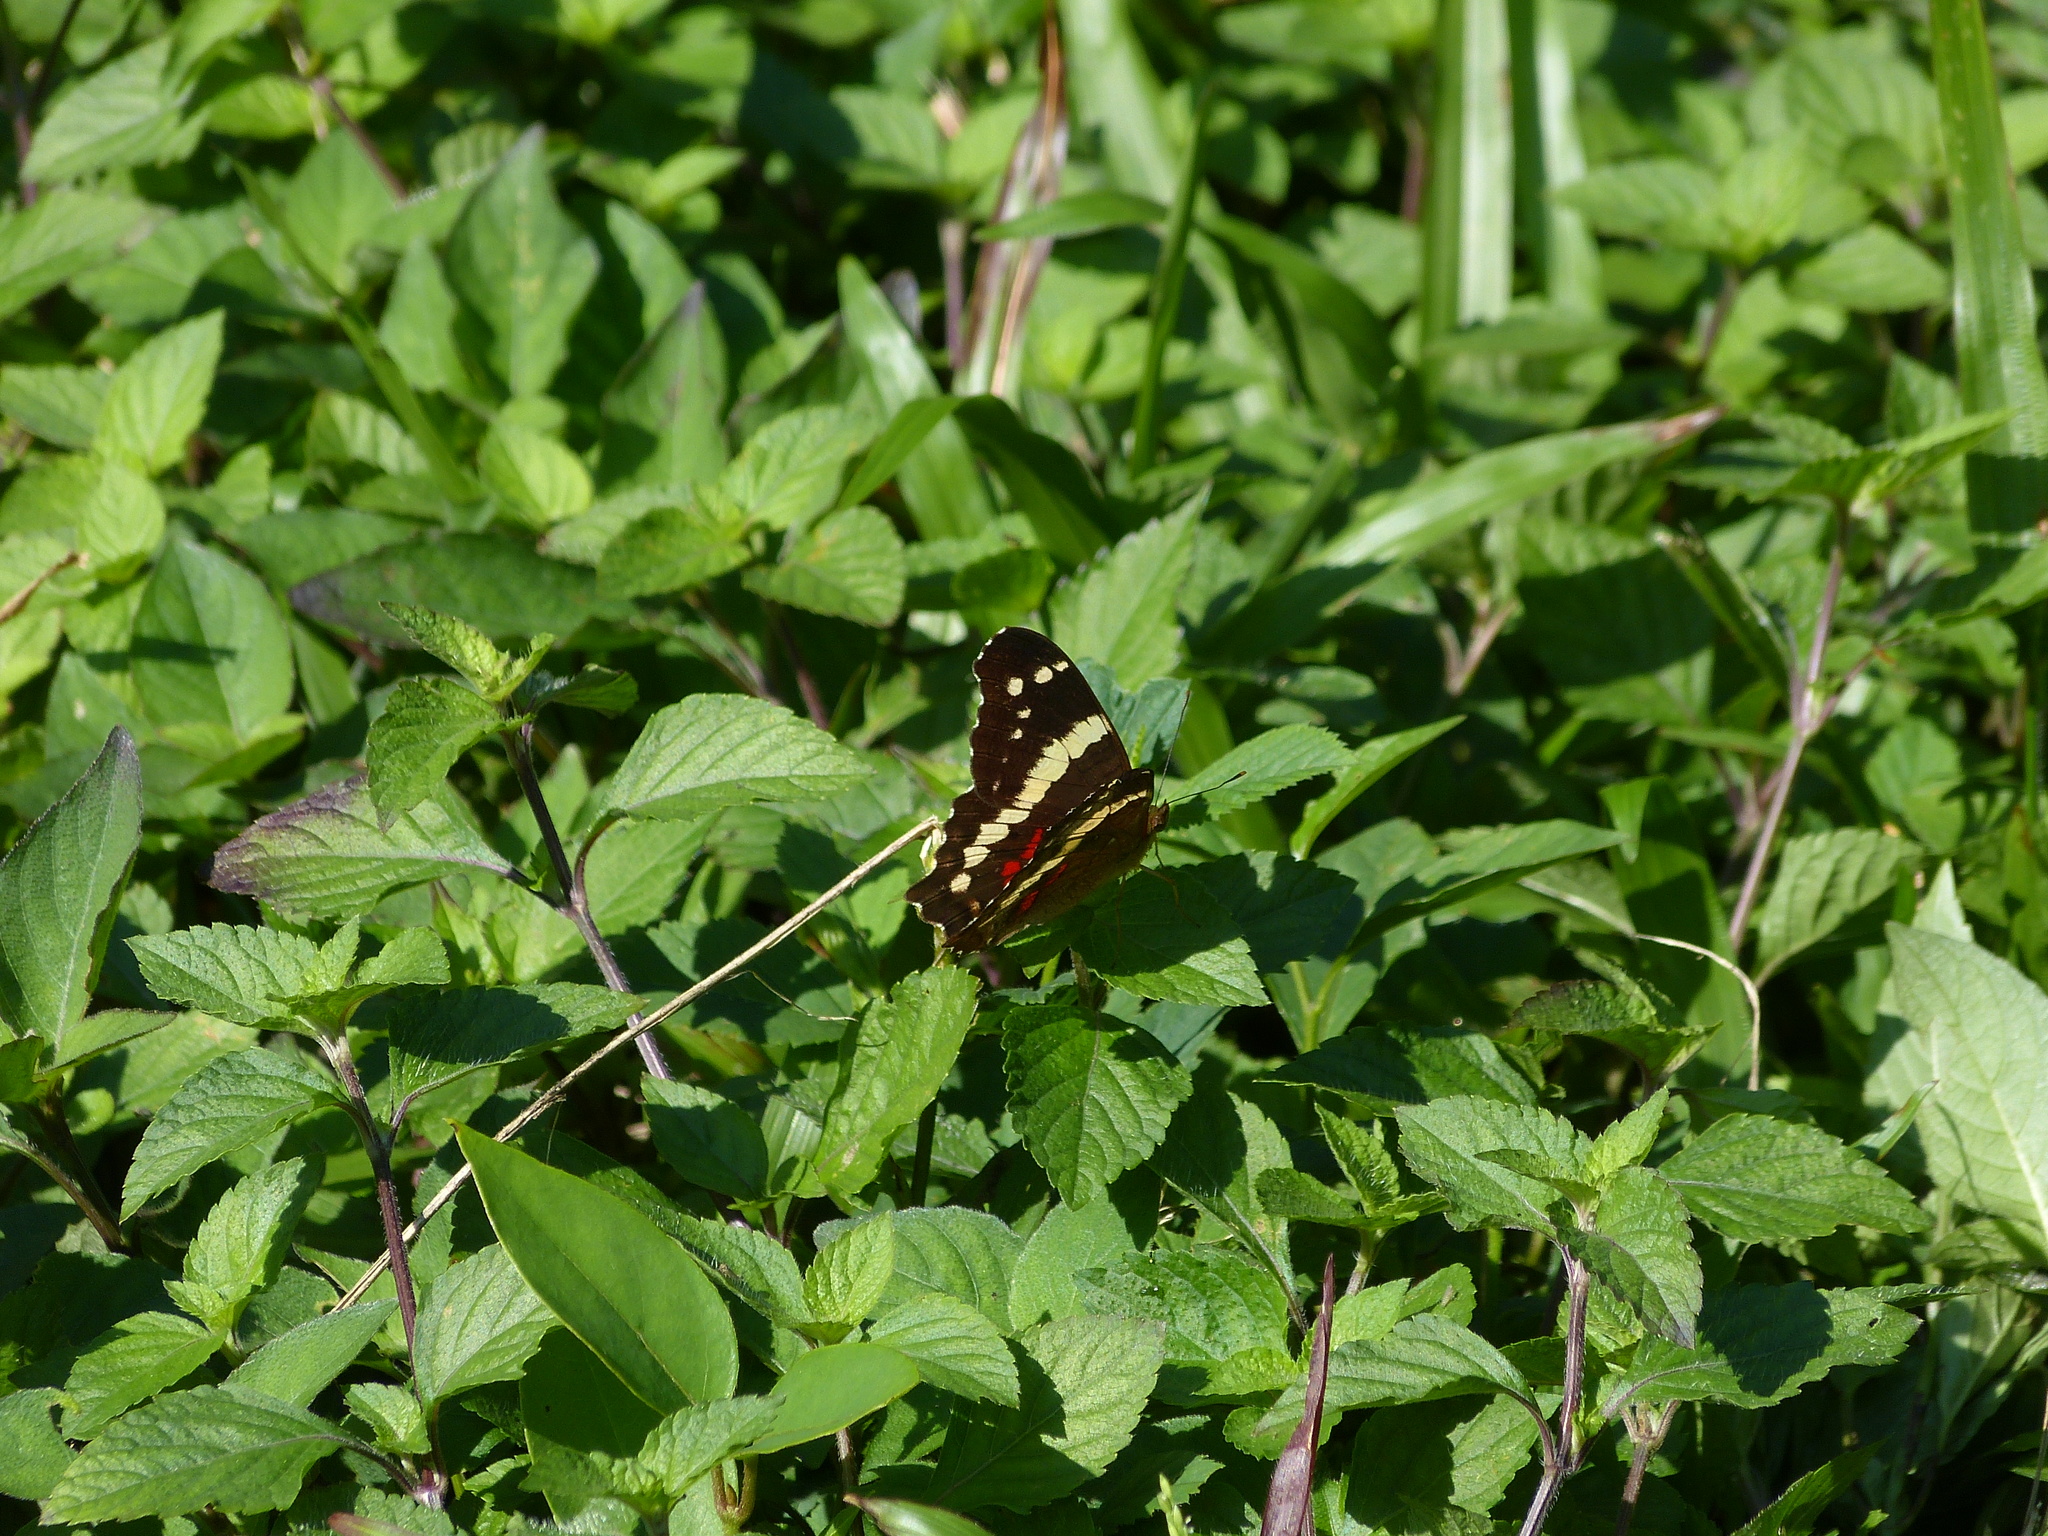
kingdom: Animalia
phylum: Arthropoda
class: Insecta
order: Lepidoptera
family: Nymphalidae
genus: Anartia
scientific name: Anartia fatima
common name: Banded peacock
